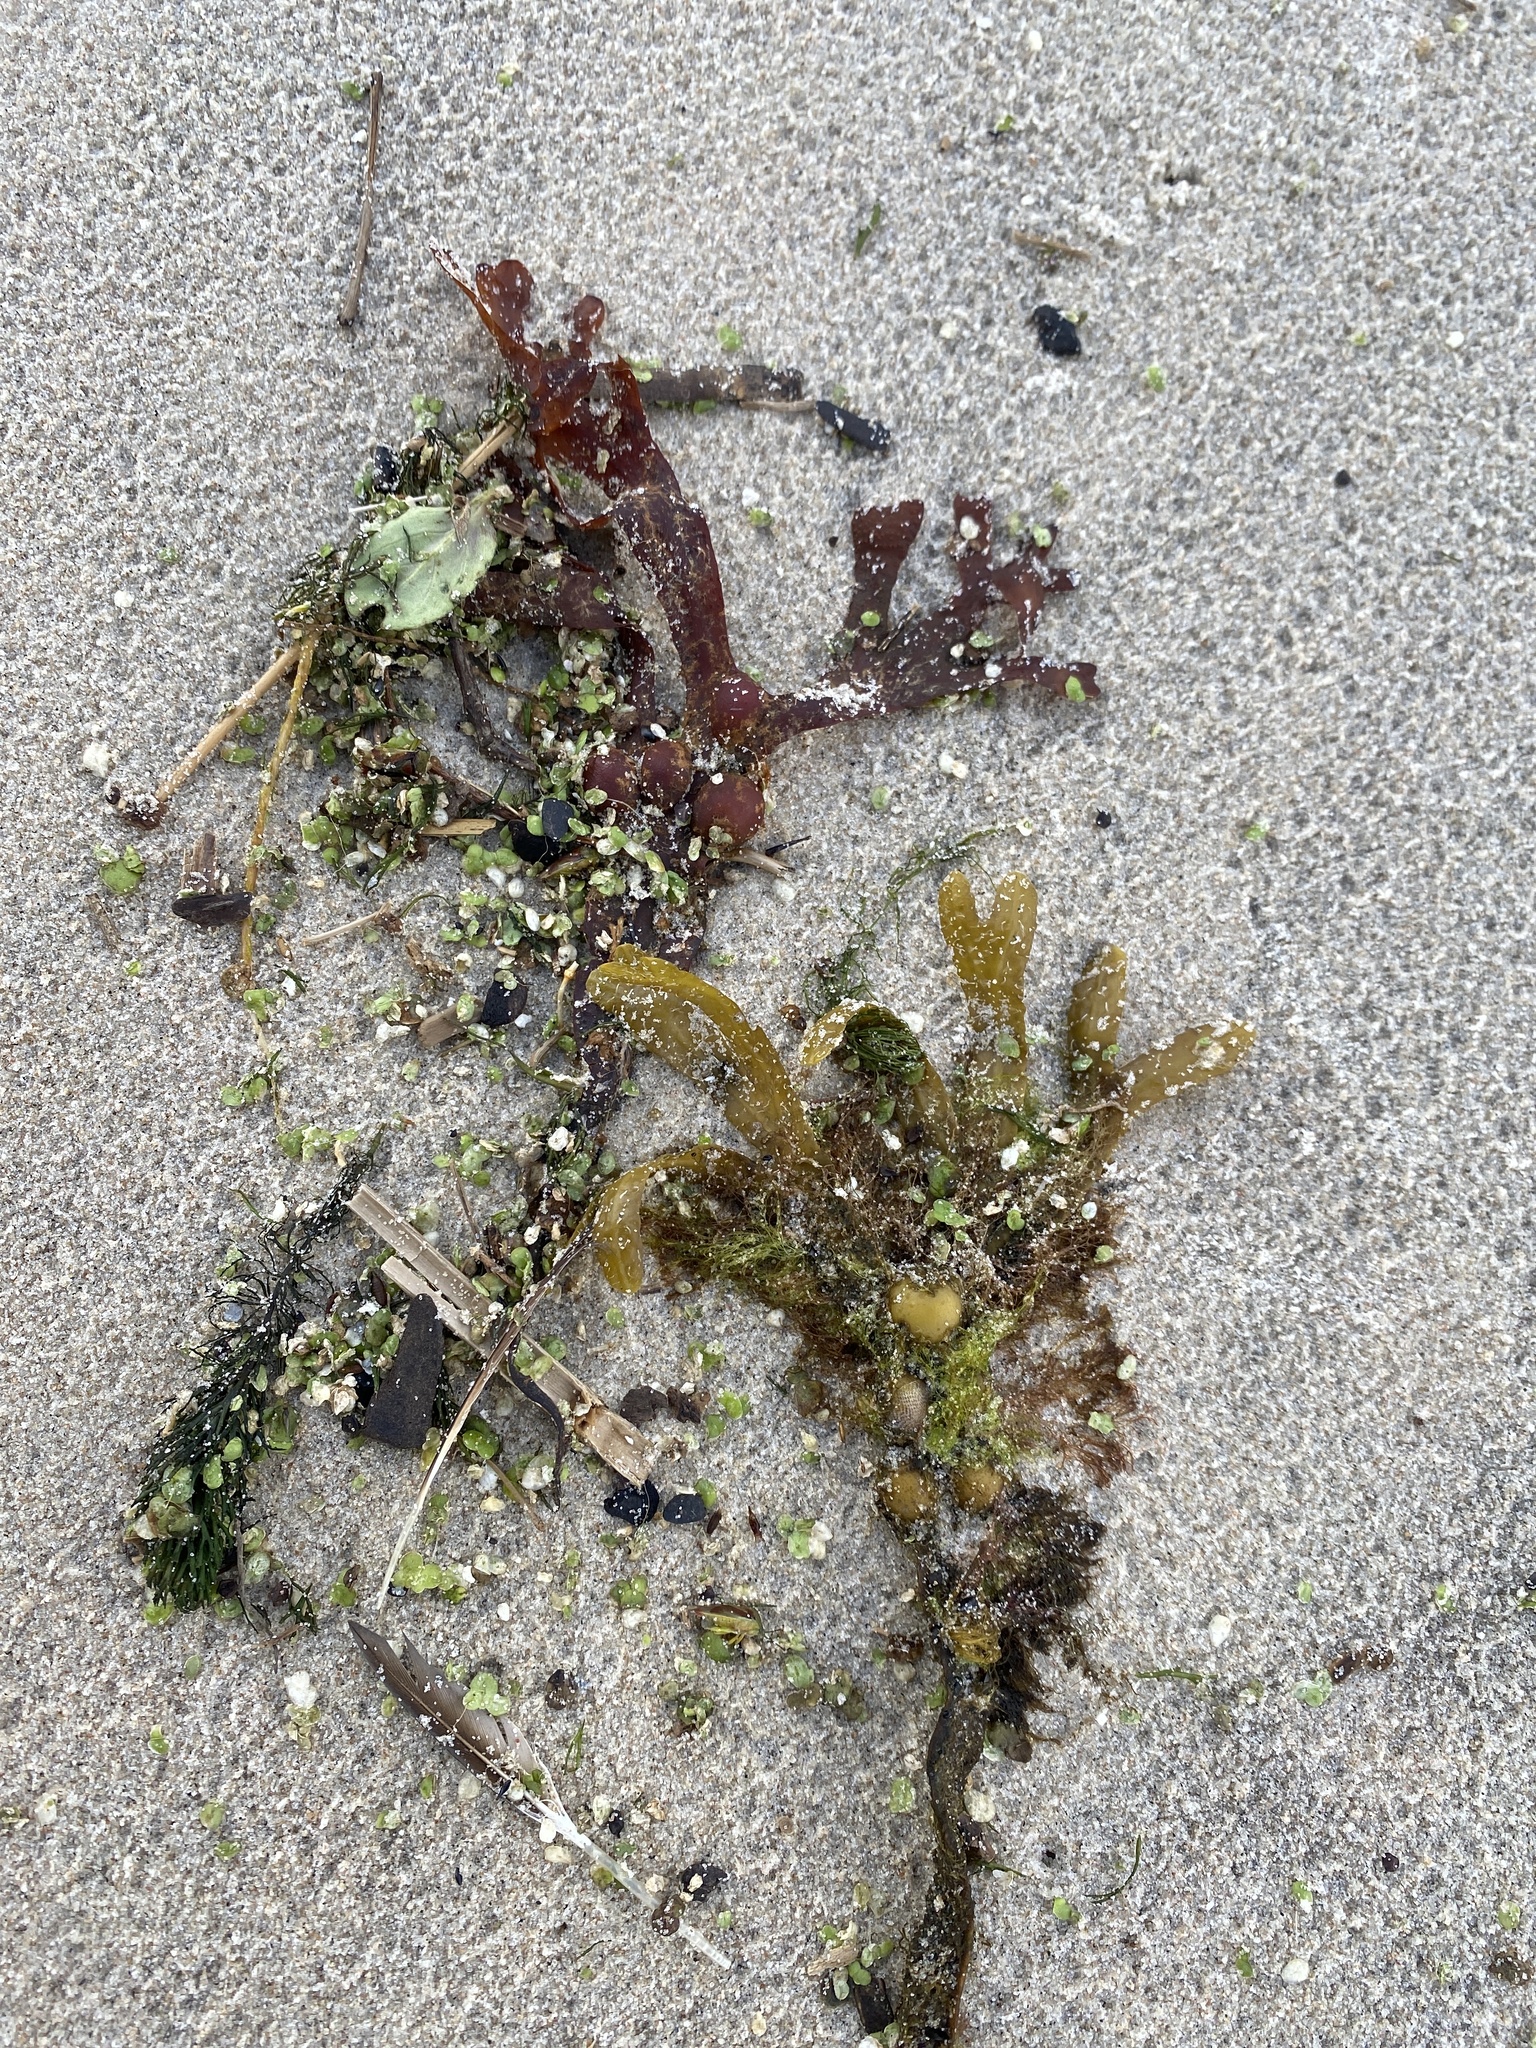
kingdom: Chromista
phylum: Ochrophyta
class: Phaeophyceae
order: Fucales
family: Fucaceae
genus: Fucus
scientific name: Fucus vesiculosus
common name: Bladder wrack
